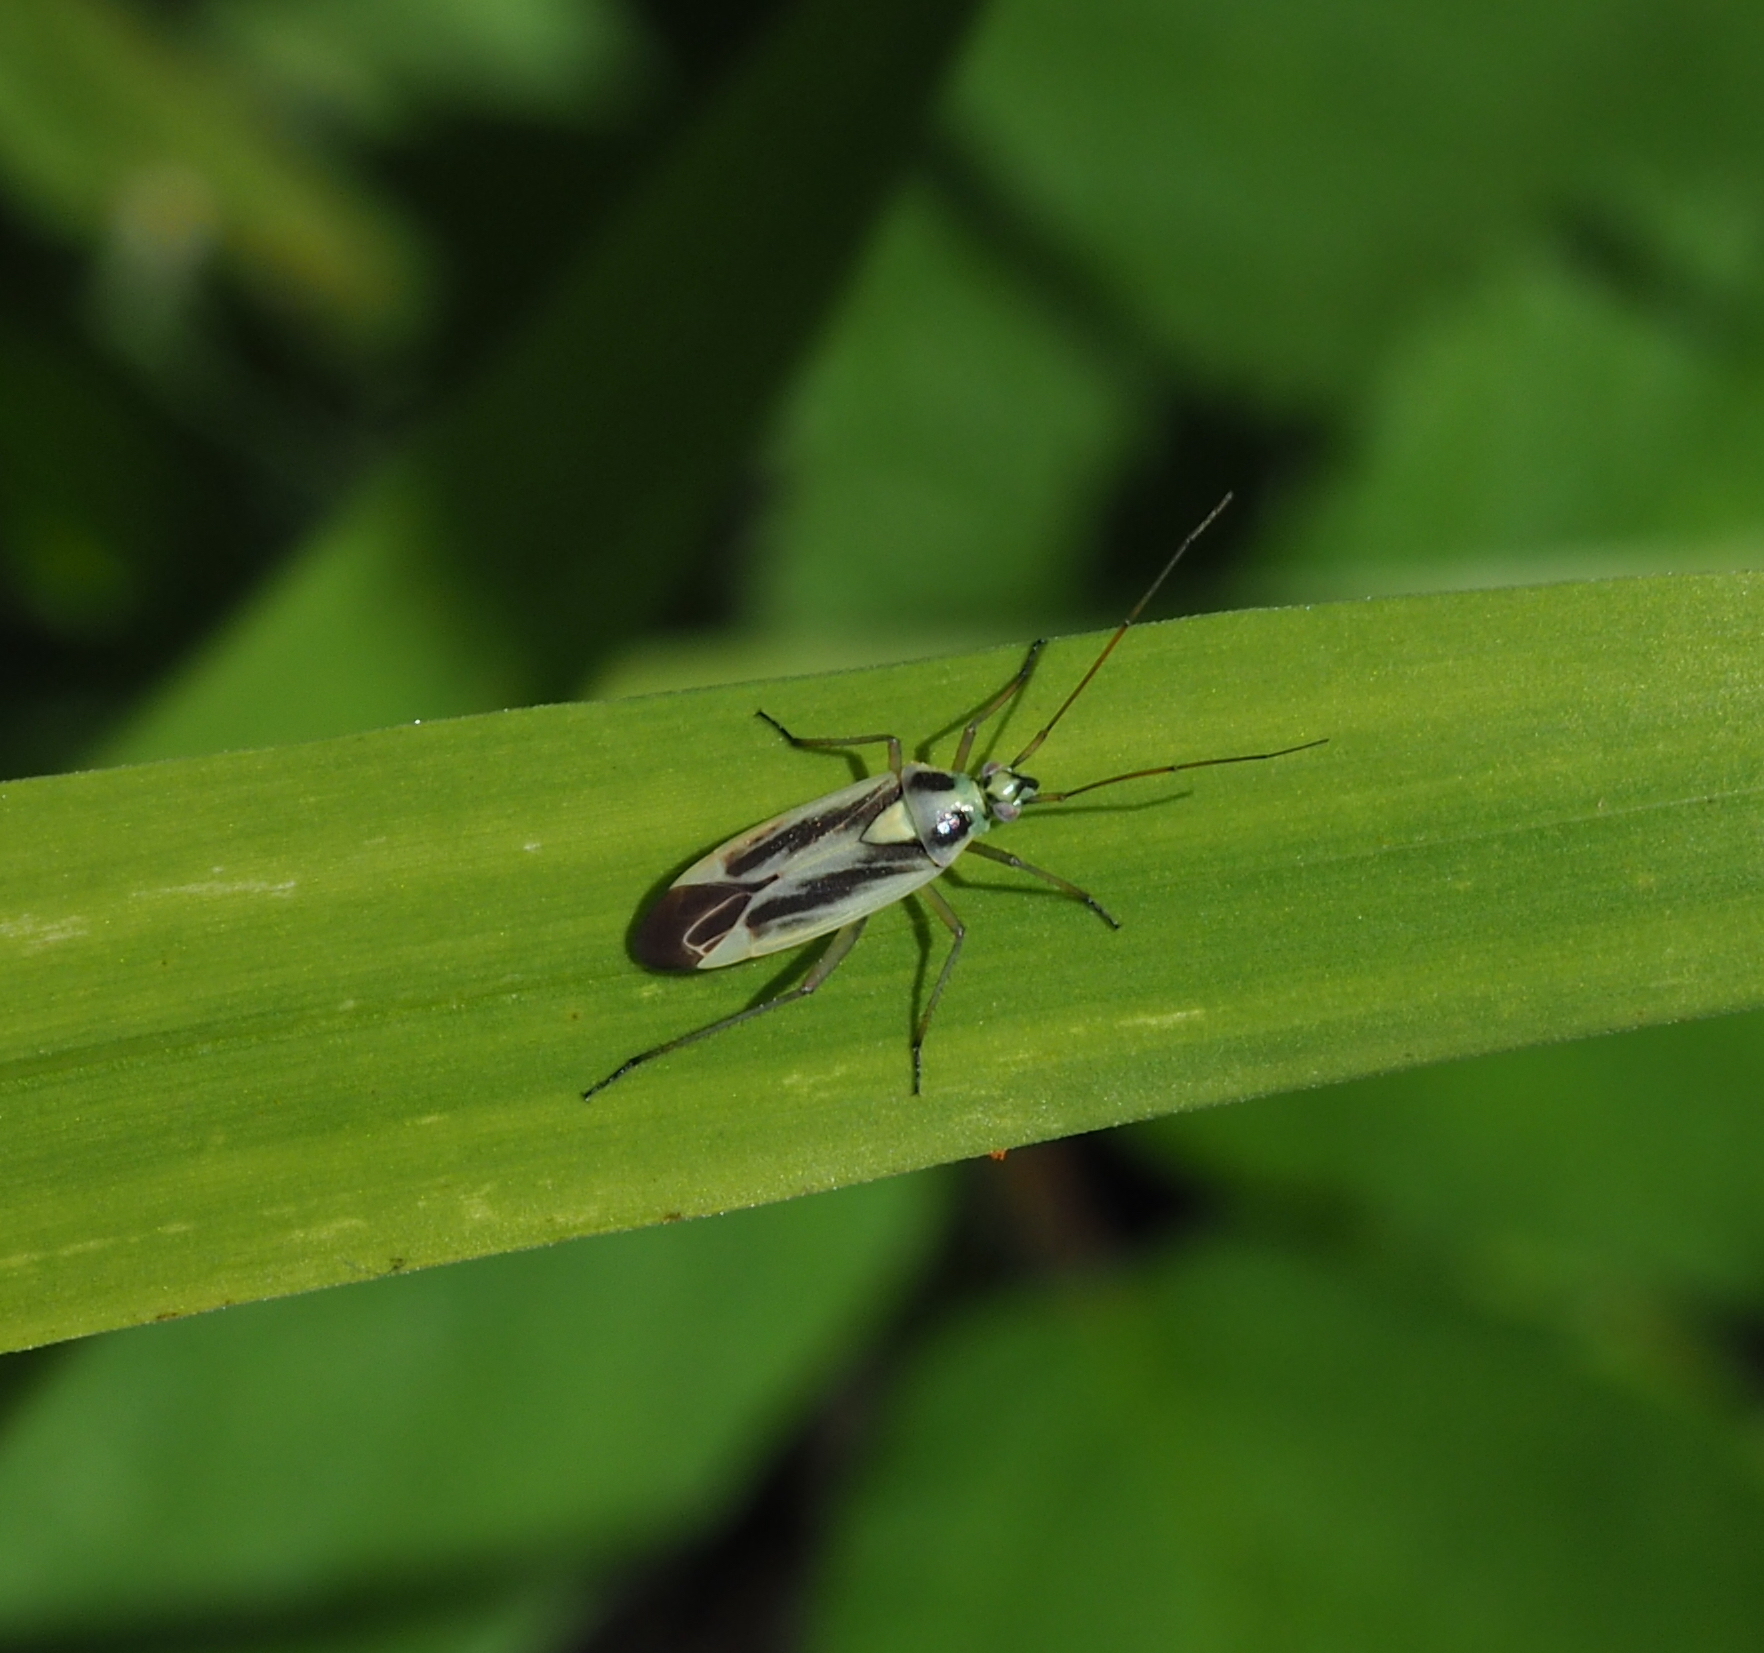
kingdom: Animalia
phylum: Arthropoda
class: Insecta
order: Hemiptera
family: Miridae
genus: Stenotus
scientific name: Stenotus binotatus
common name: Plant bug
